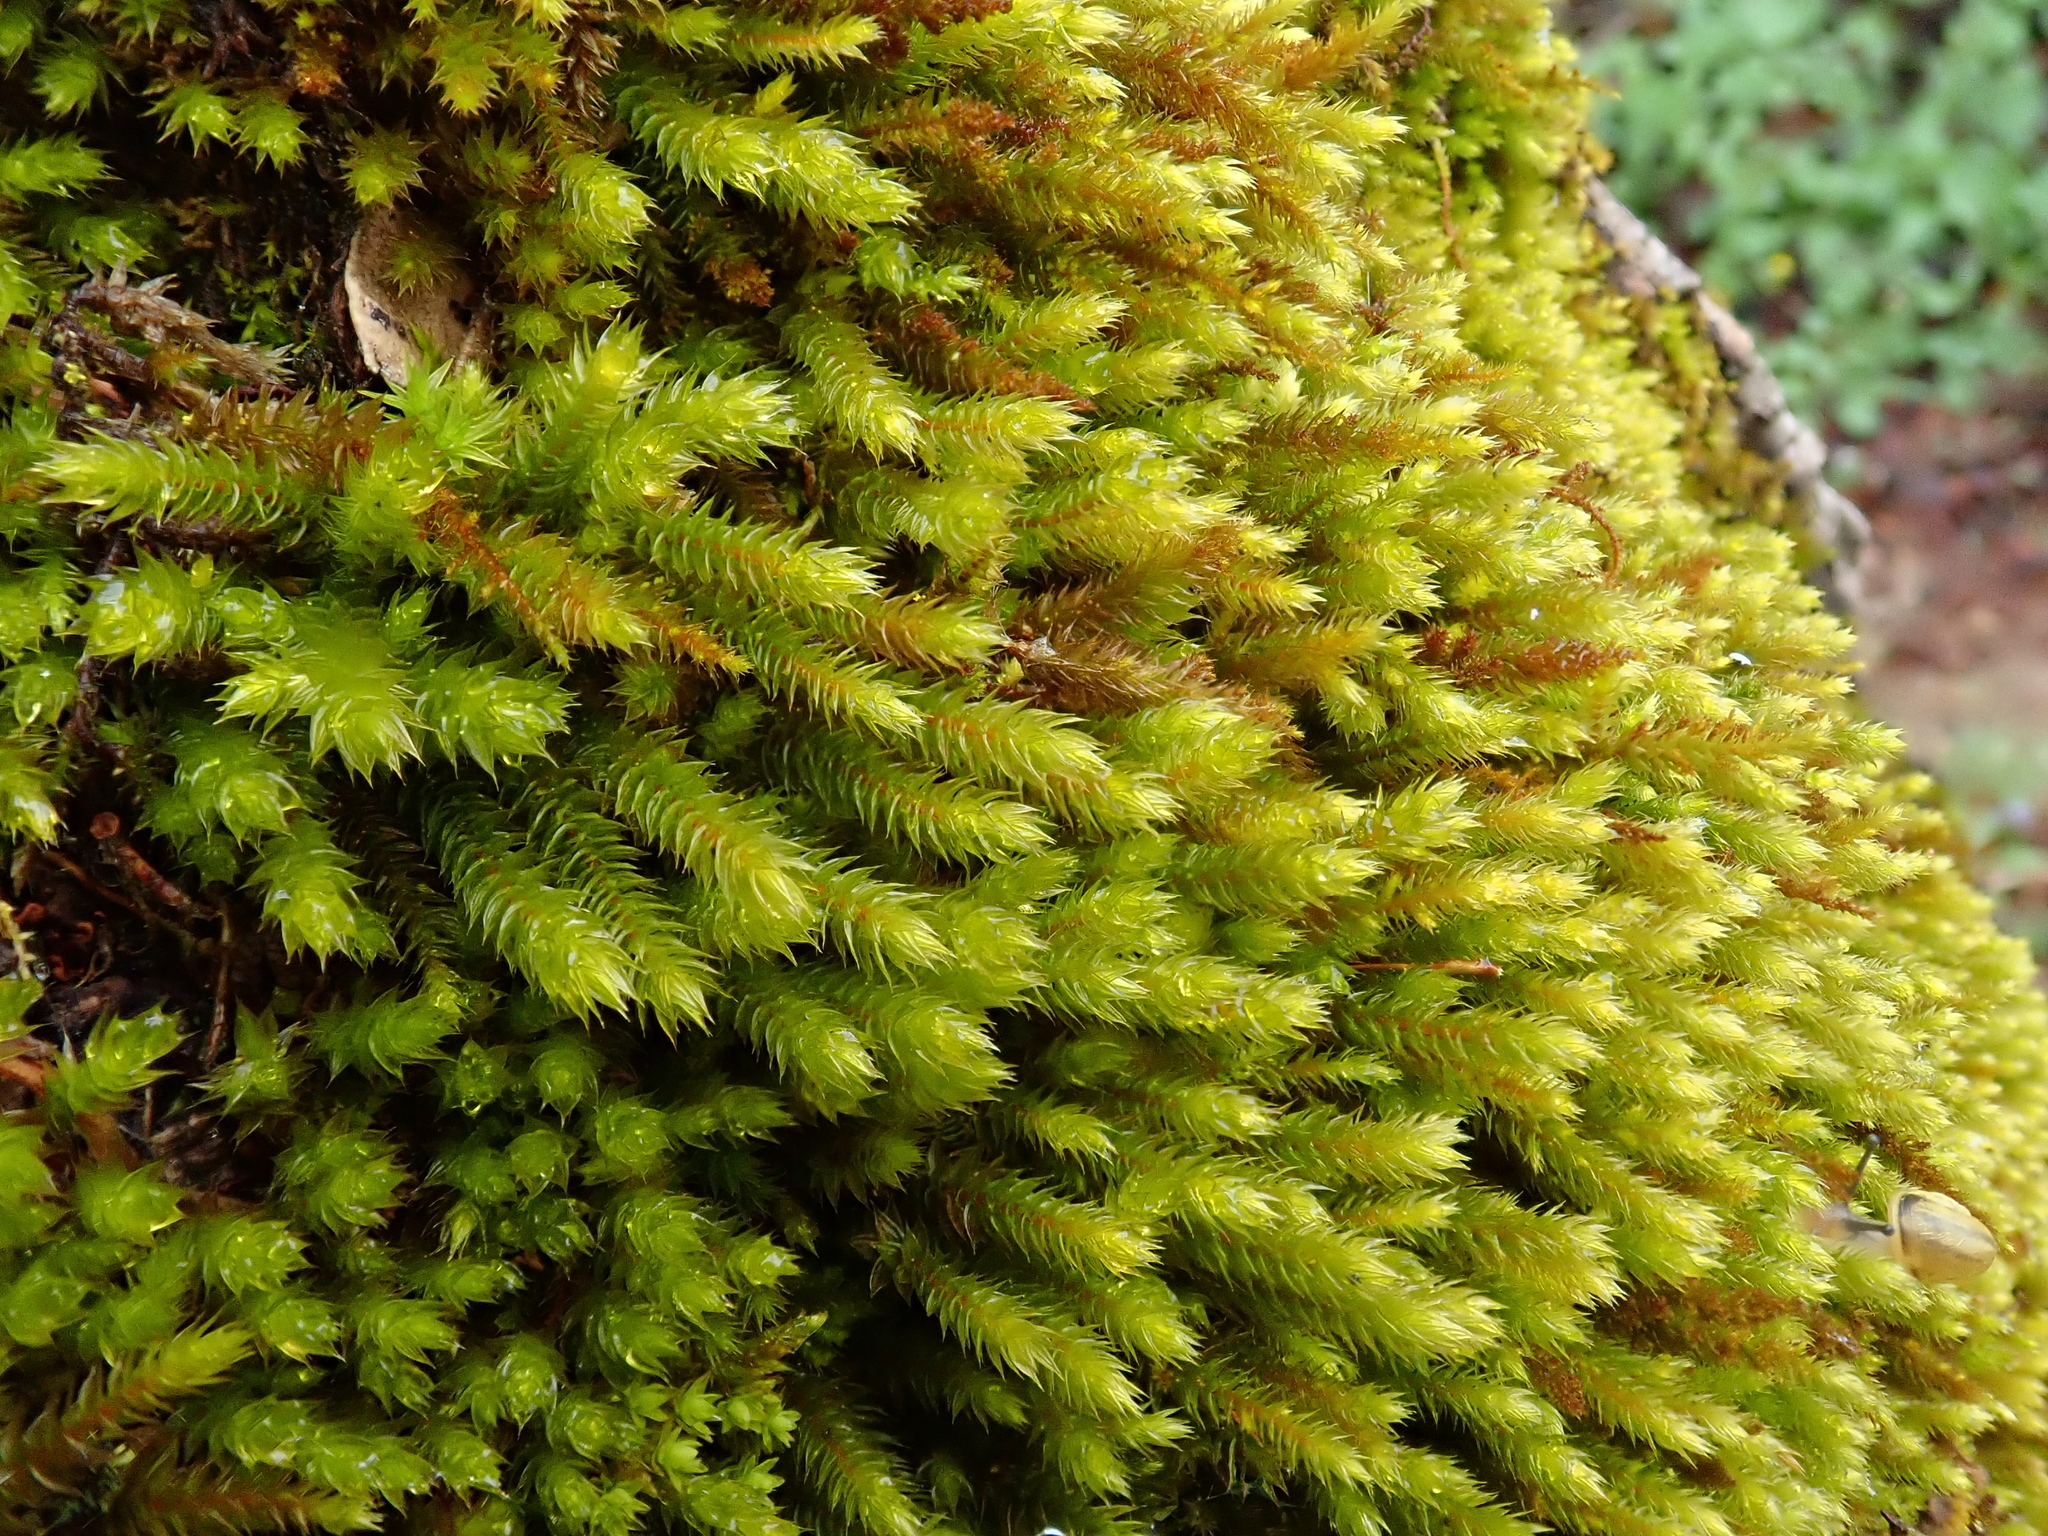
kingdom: Plantae
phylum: Bryophyta
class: Bryopsida
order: Hypnales
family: Leucodontaceae
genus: Leucodon
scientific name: Leucodon sciuroides
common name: Squirrel-tail moss
